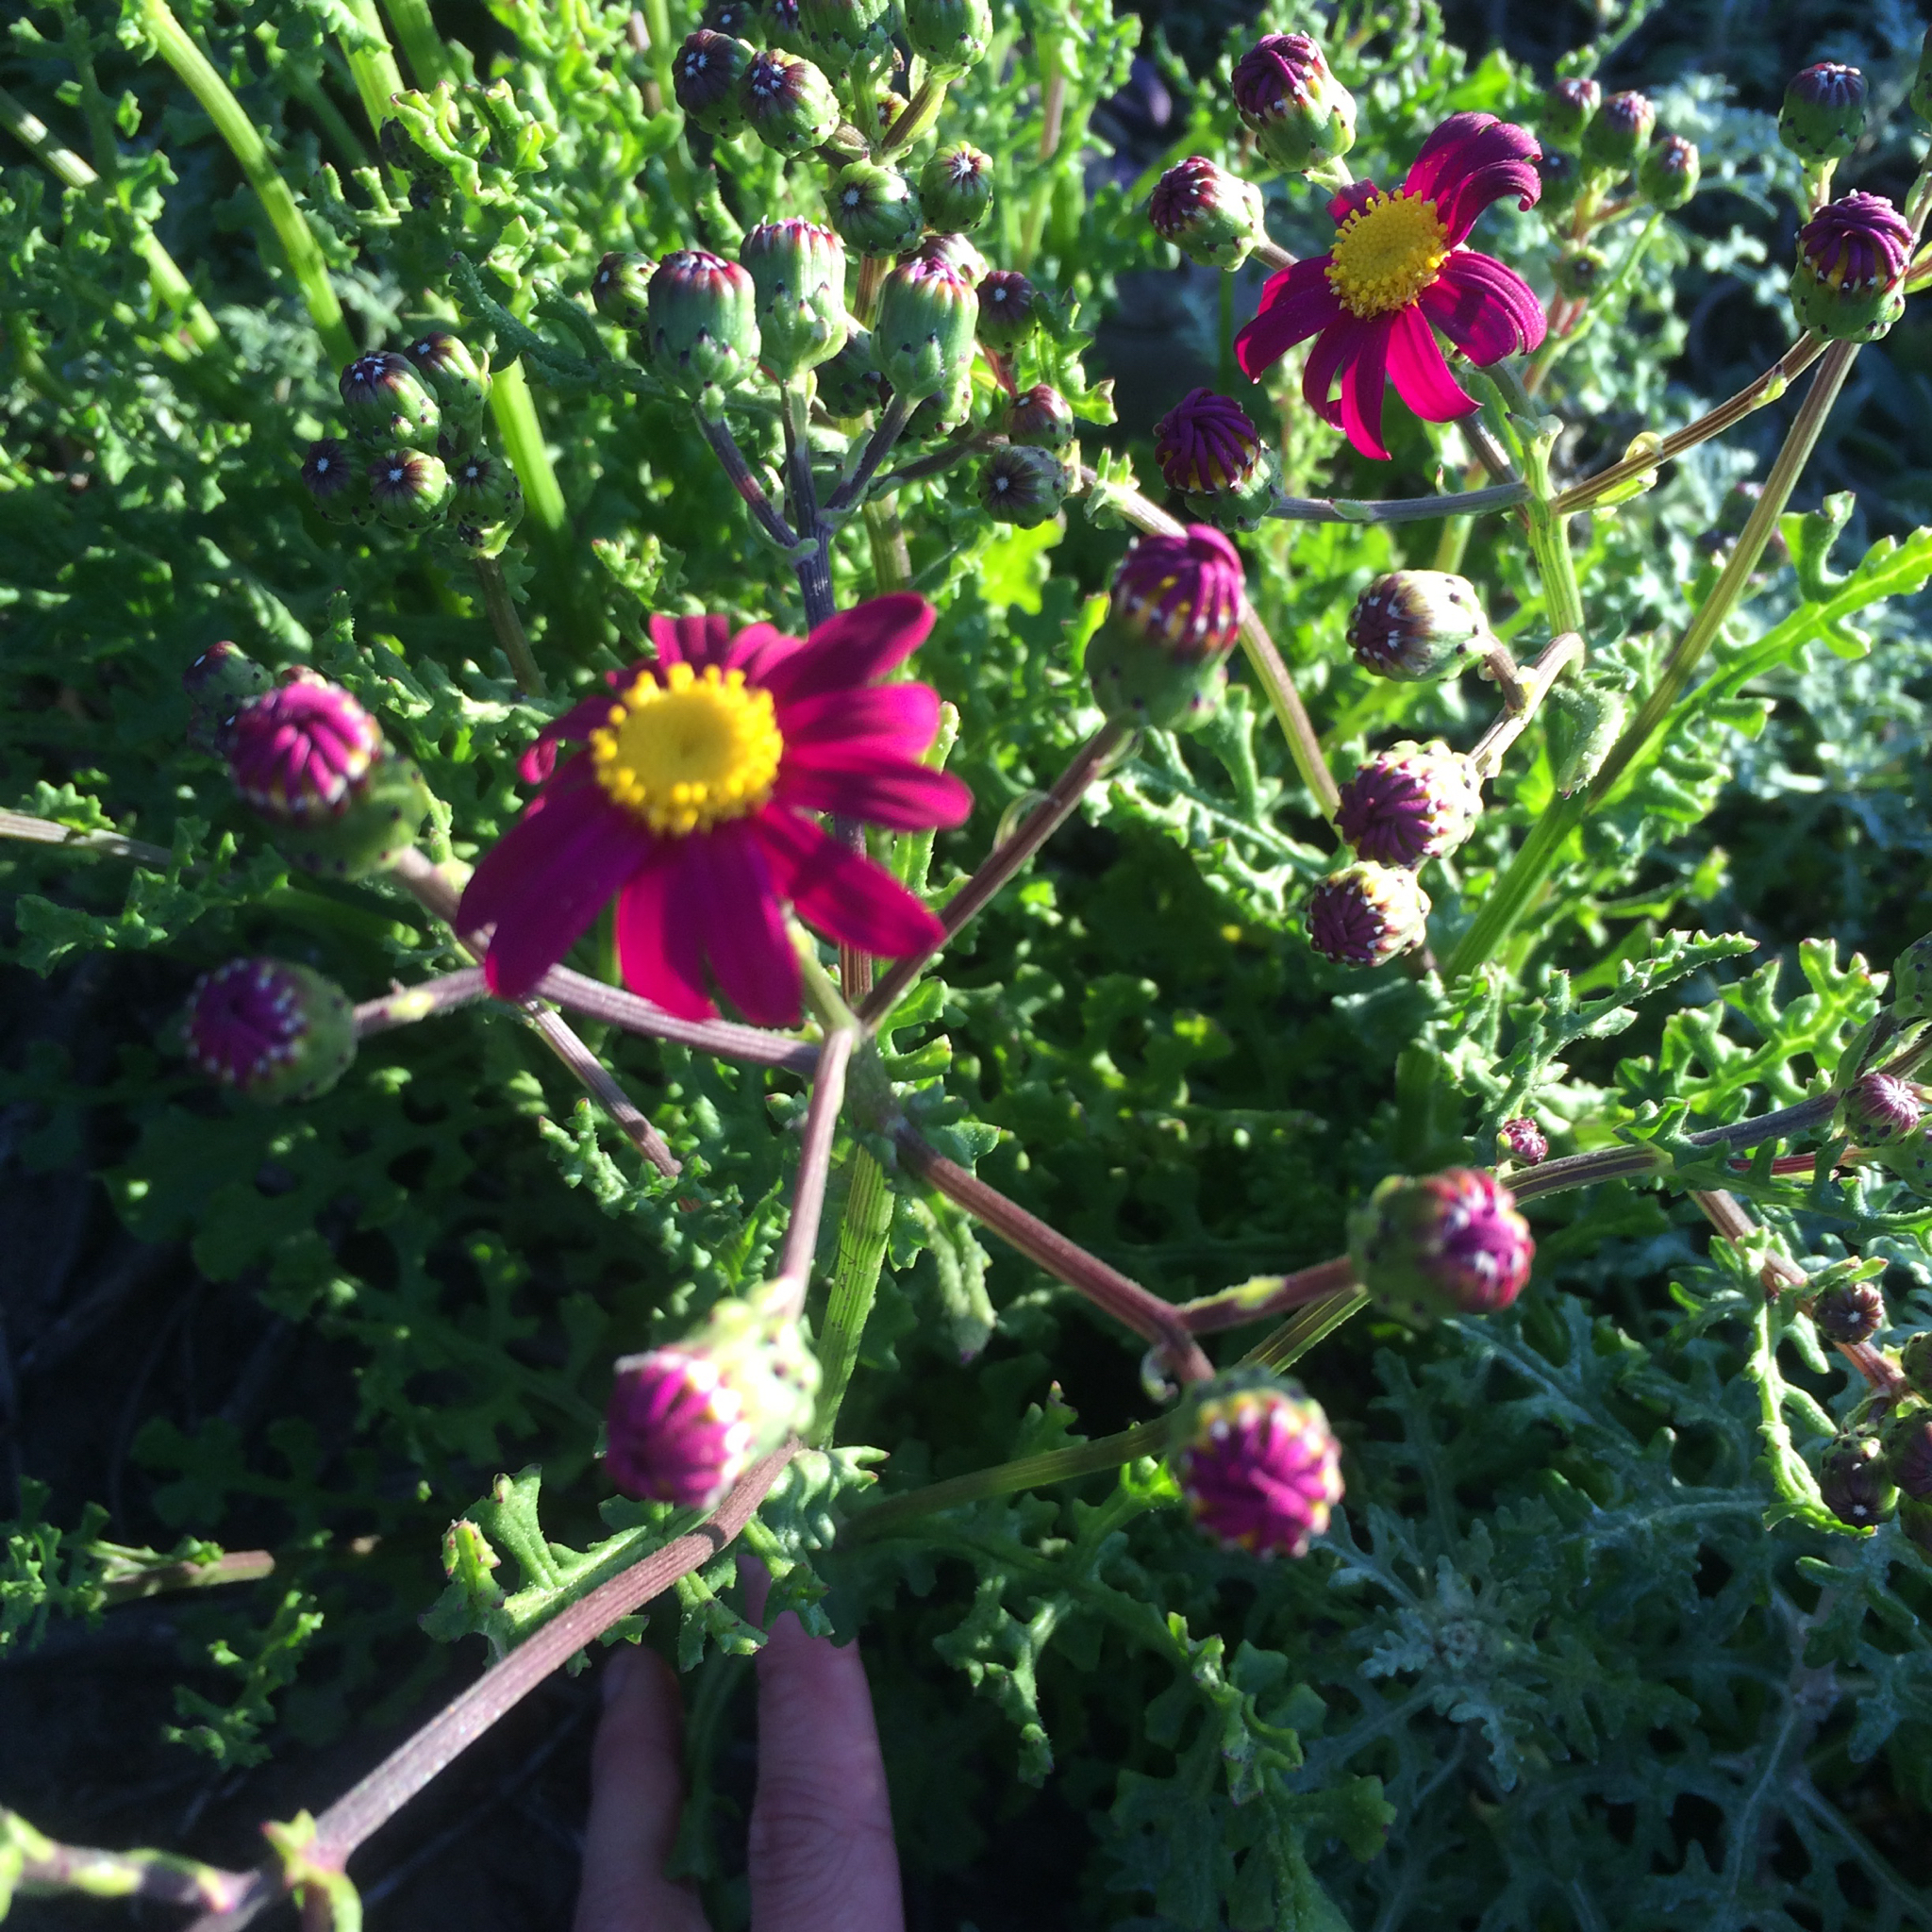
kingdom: Plantae
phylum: Tracheophyta
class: Magnoliopsida
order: Asterales
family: Asteraceae
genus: Senecio
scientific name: Senecio elegans
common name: Purple groundsel
